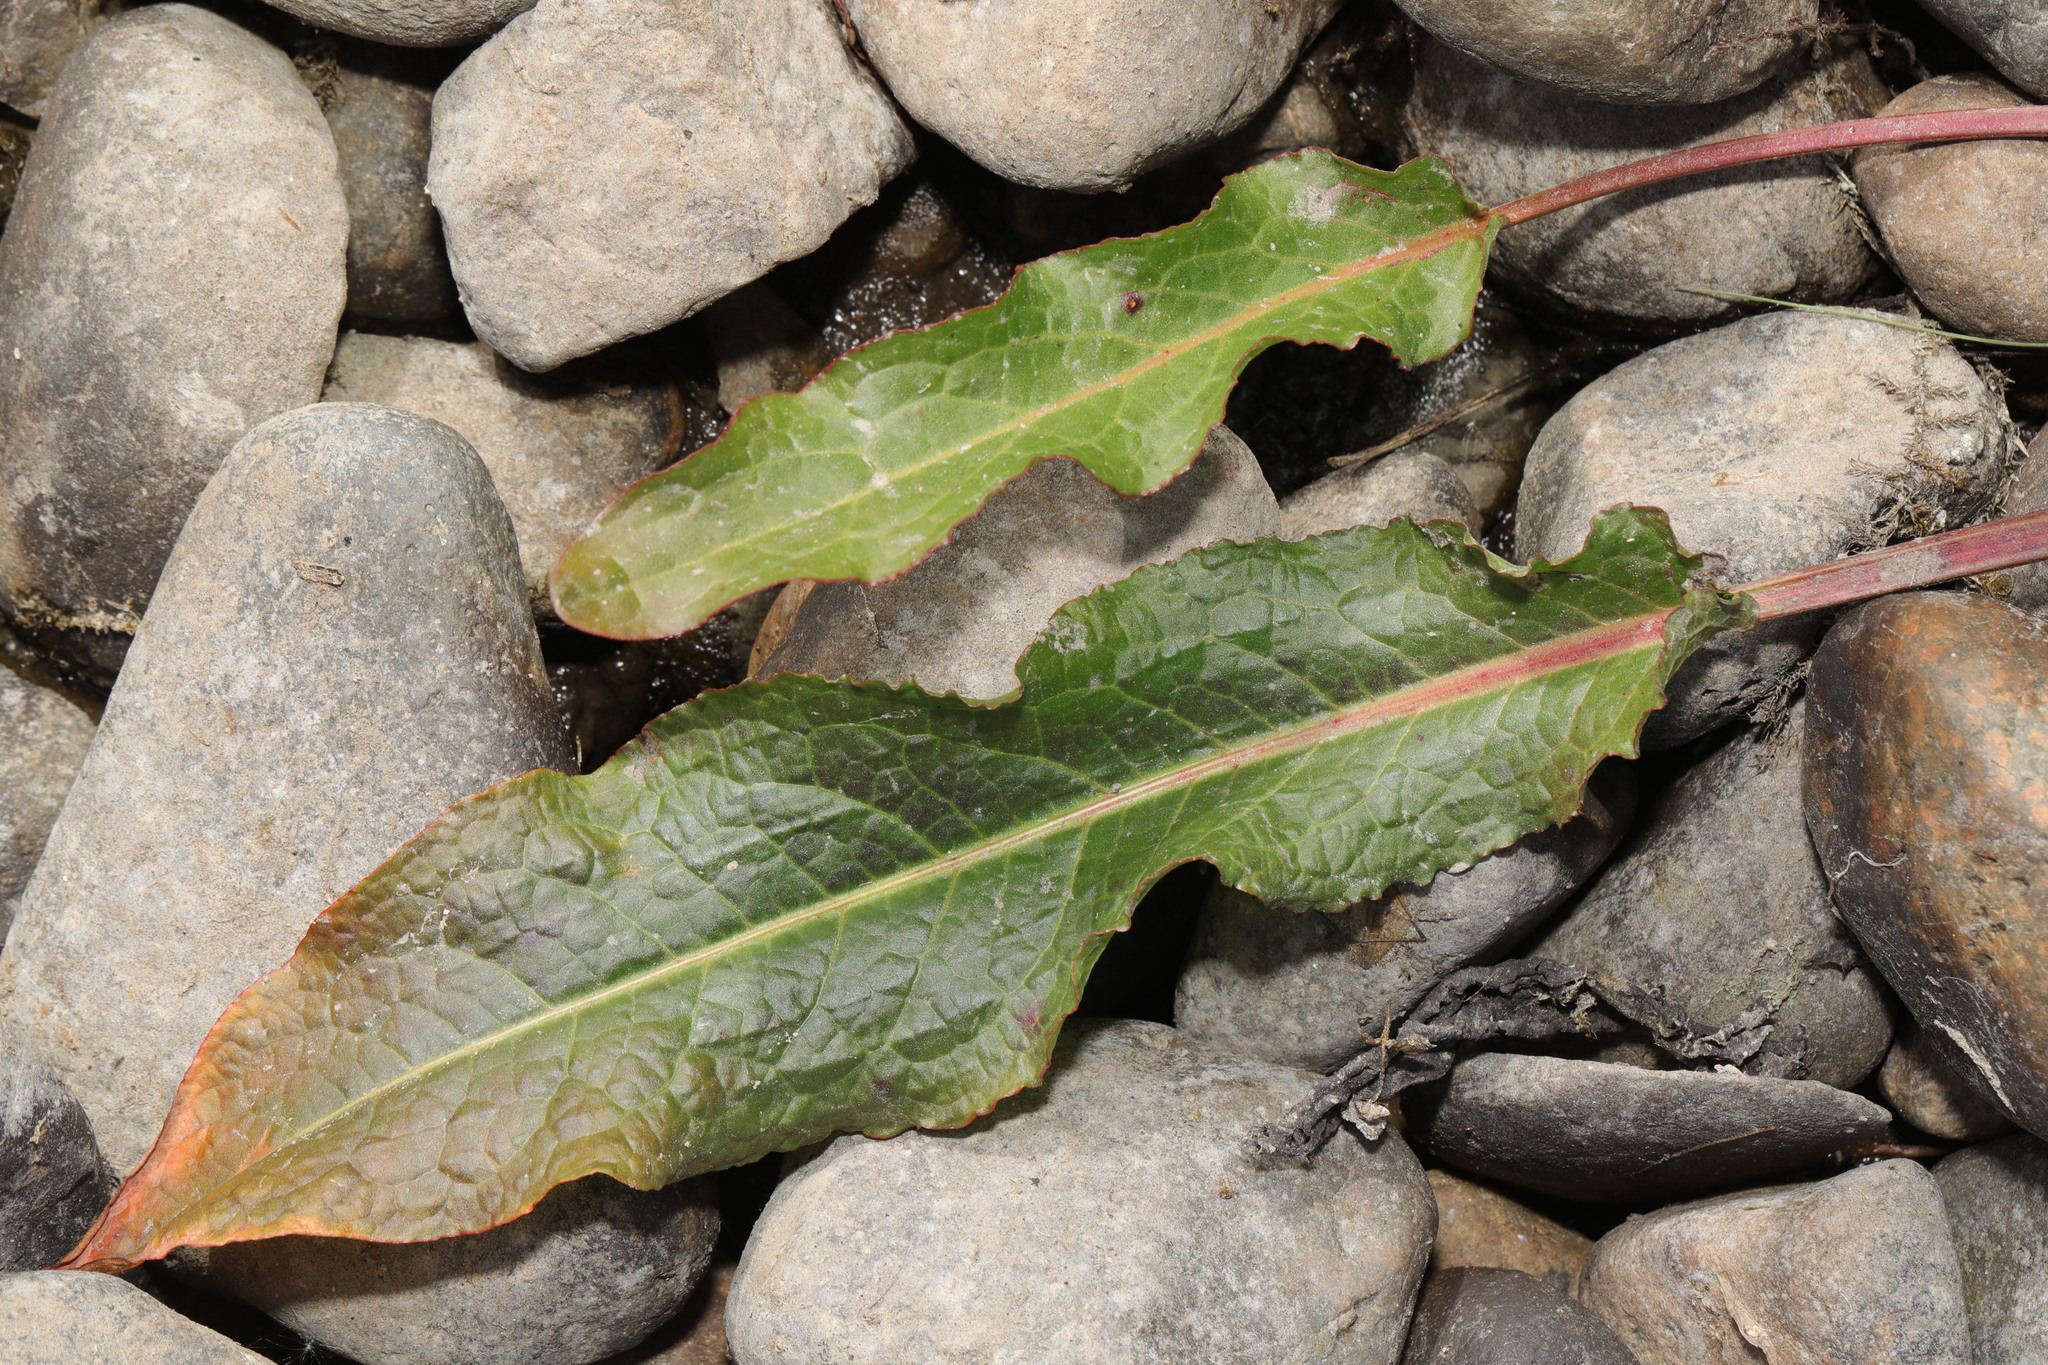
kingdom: Plantae
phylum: Tracheophyta
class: Magnoliopsida
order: Caryophyllales
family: Polygonaceae
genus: Rumex
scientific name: Rumex crispus
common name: Curled dock
